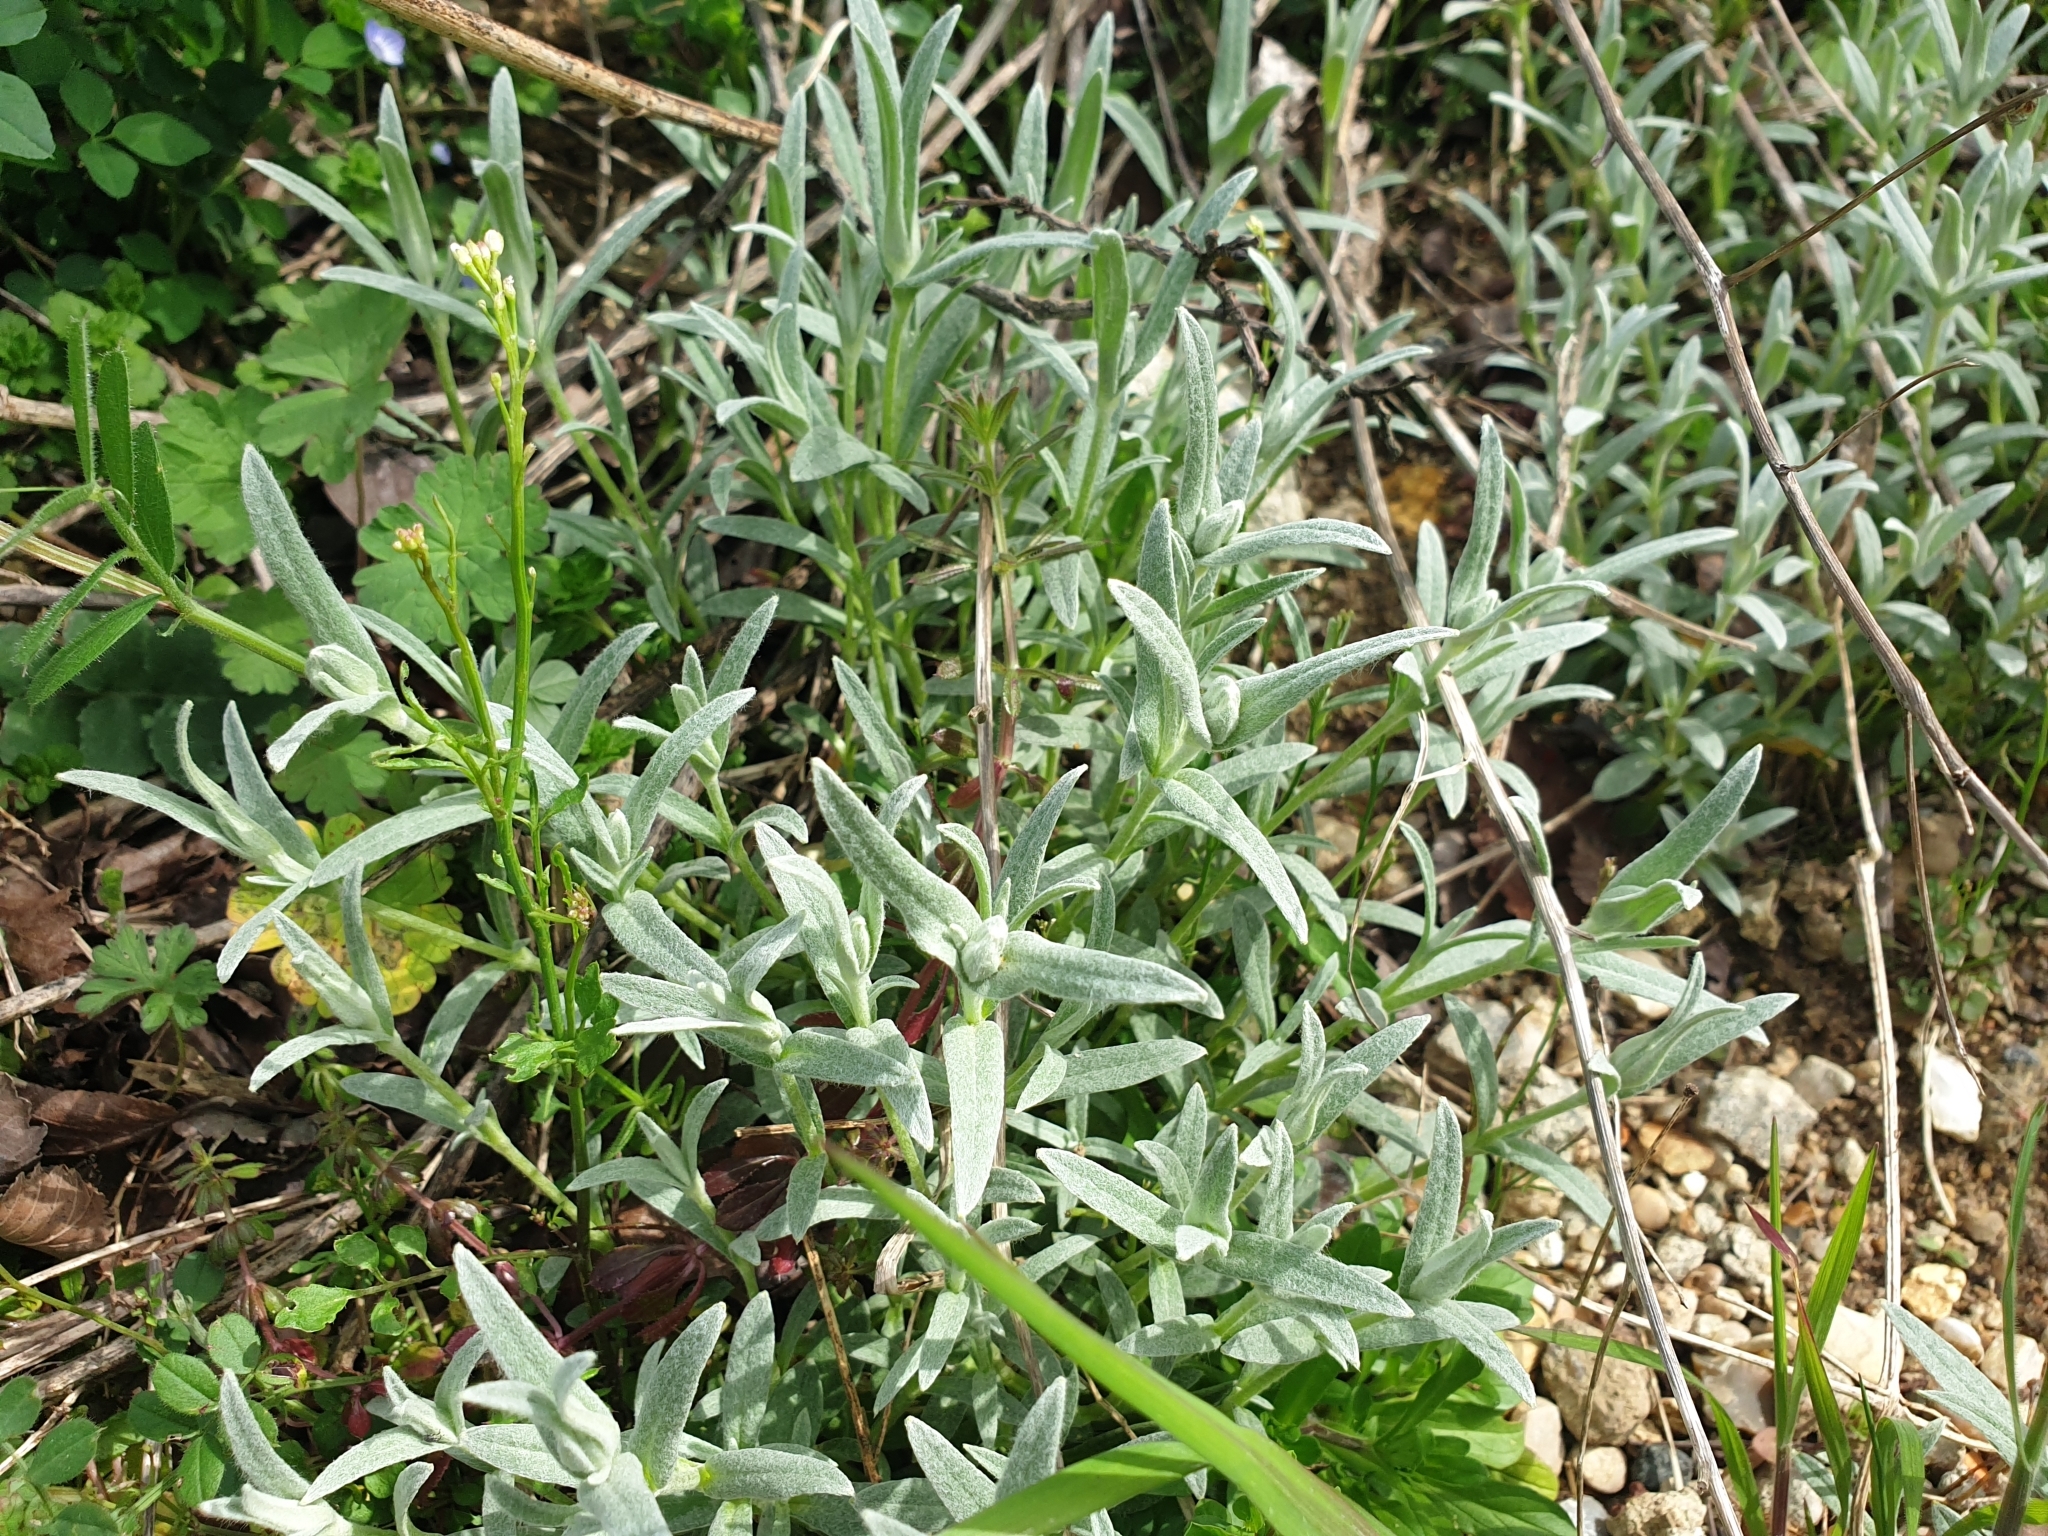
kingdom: Plantae
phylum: Tracheophyta
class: Magnoliopsida
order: Caryophyllales
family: Caryophyllaceae
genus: Cerastium
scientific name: Cerastium tomentosum
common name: Snow-in-summer
